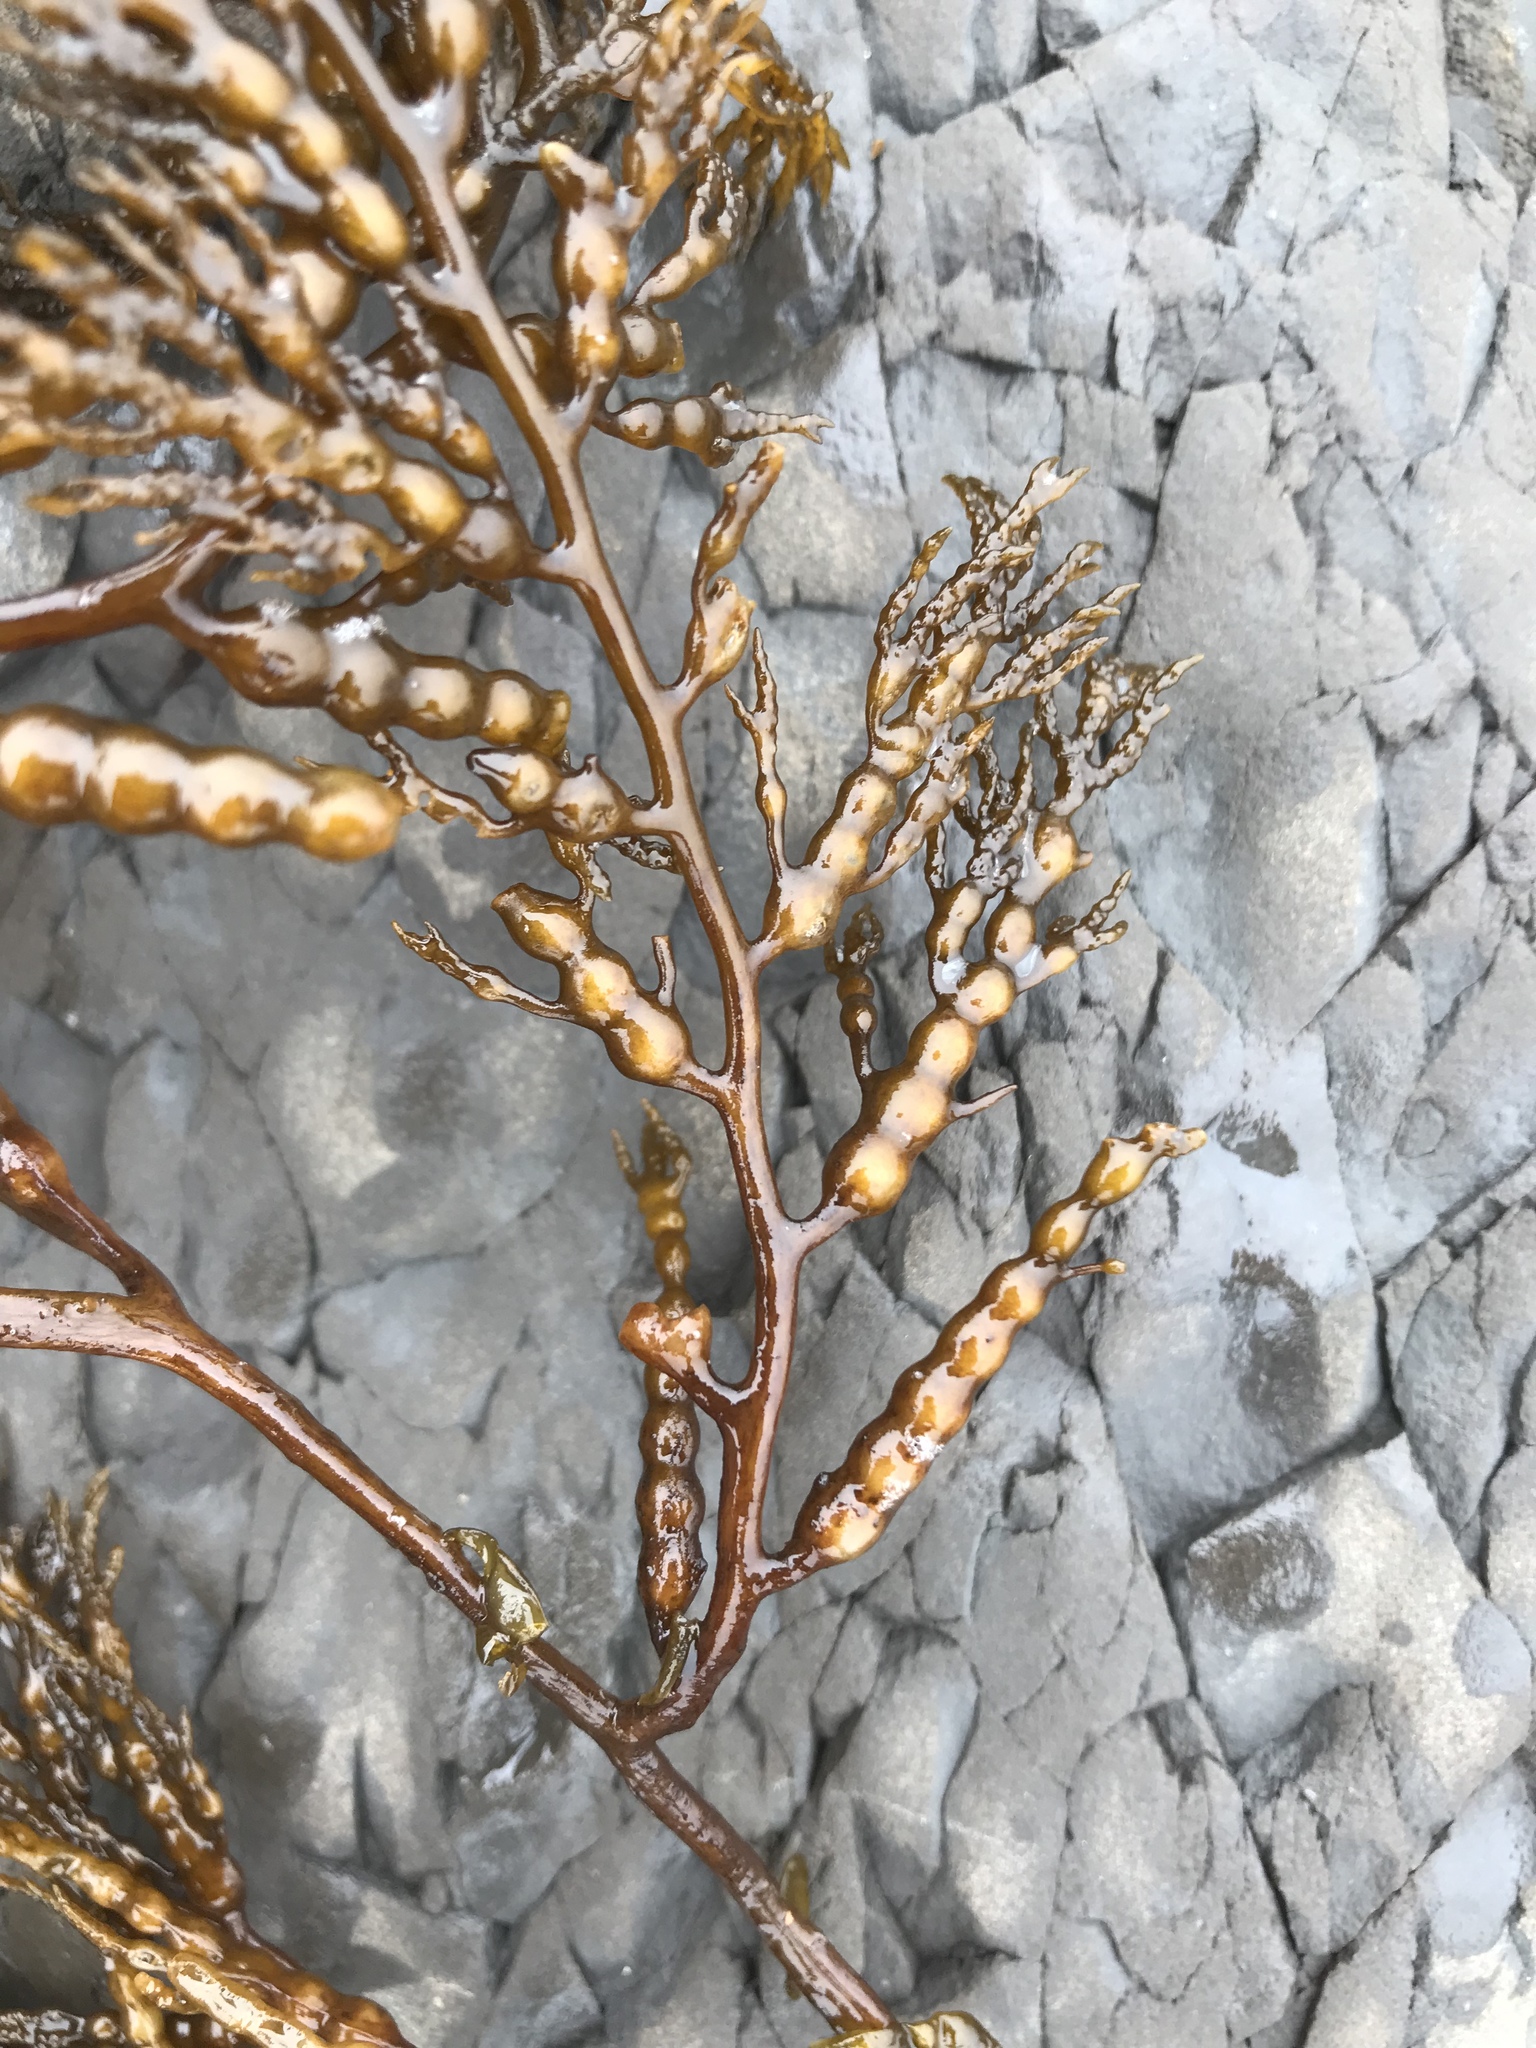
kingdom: Chromista
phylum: Ochrophyta
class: Phaeophyceae
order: Fucales
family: Sargassaceae
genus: Stephanocystis
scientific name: Stephanocystis
